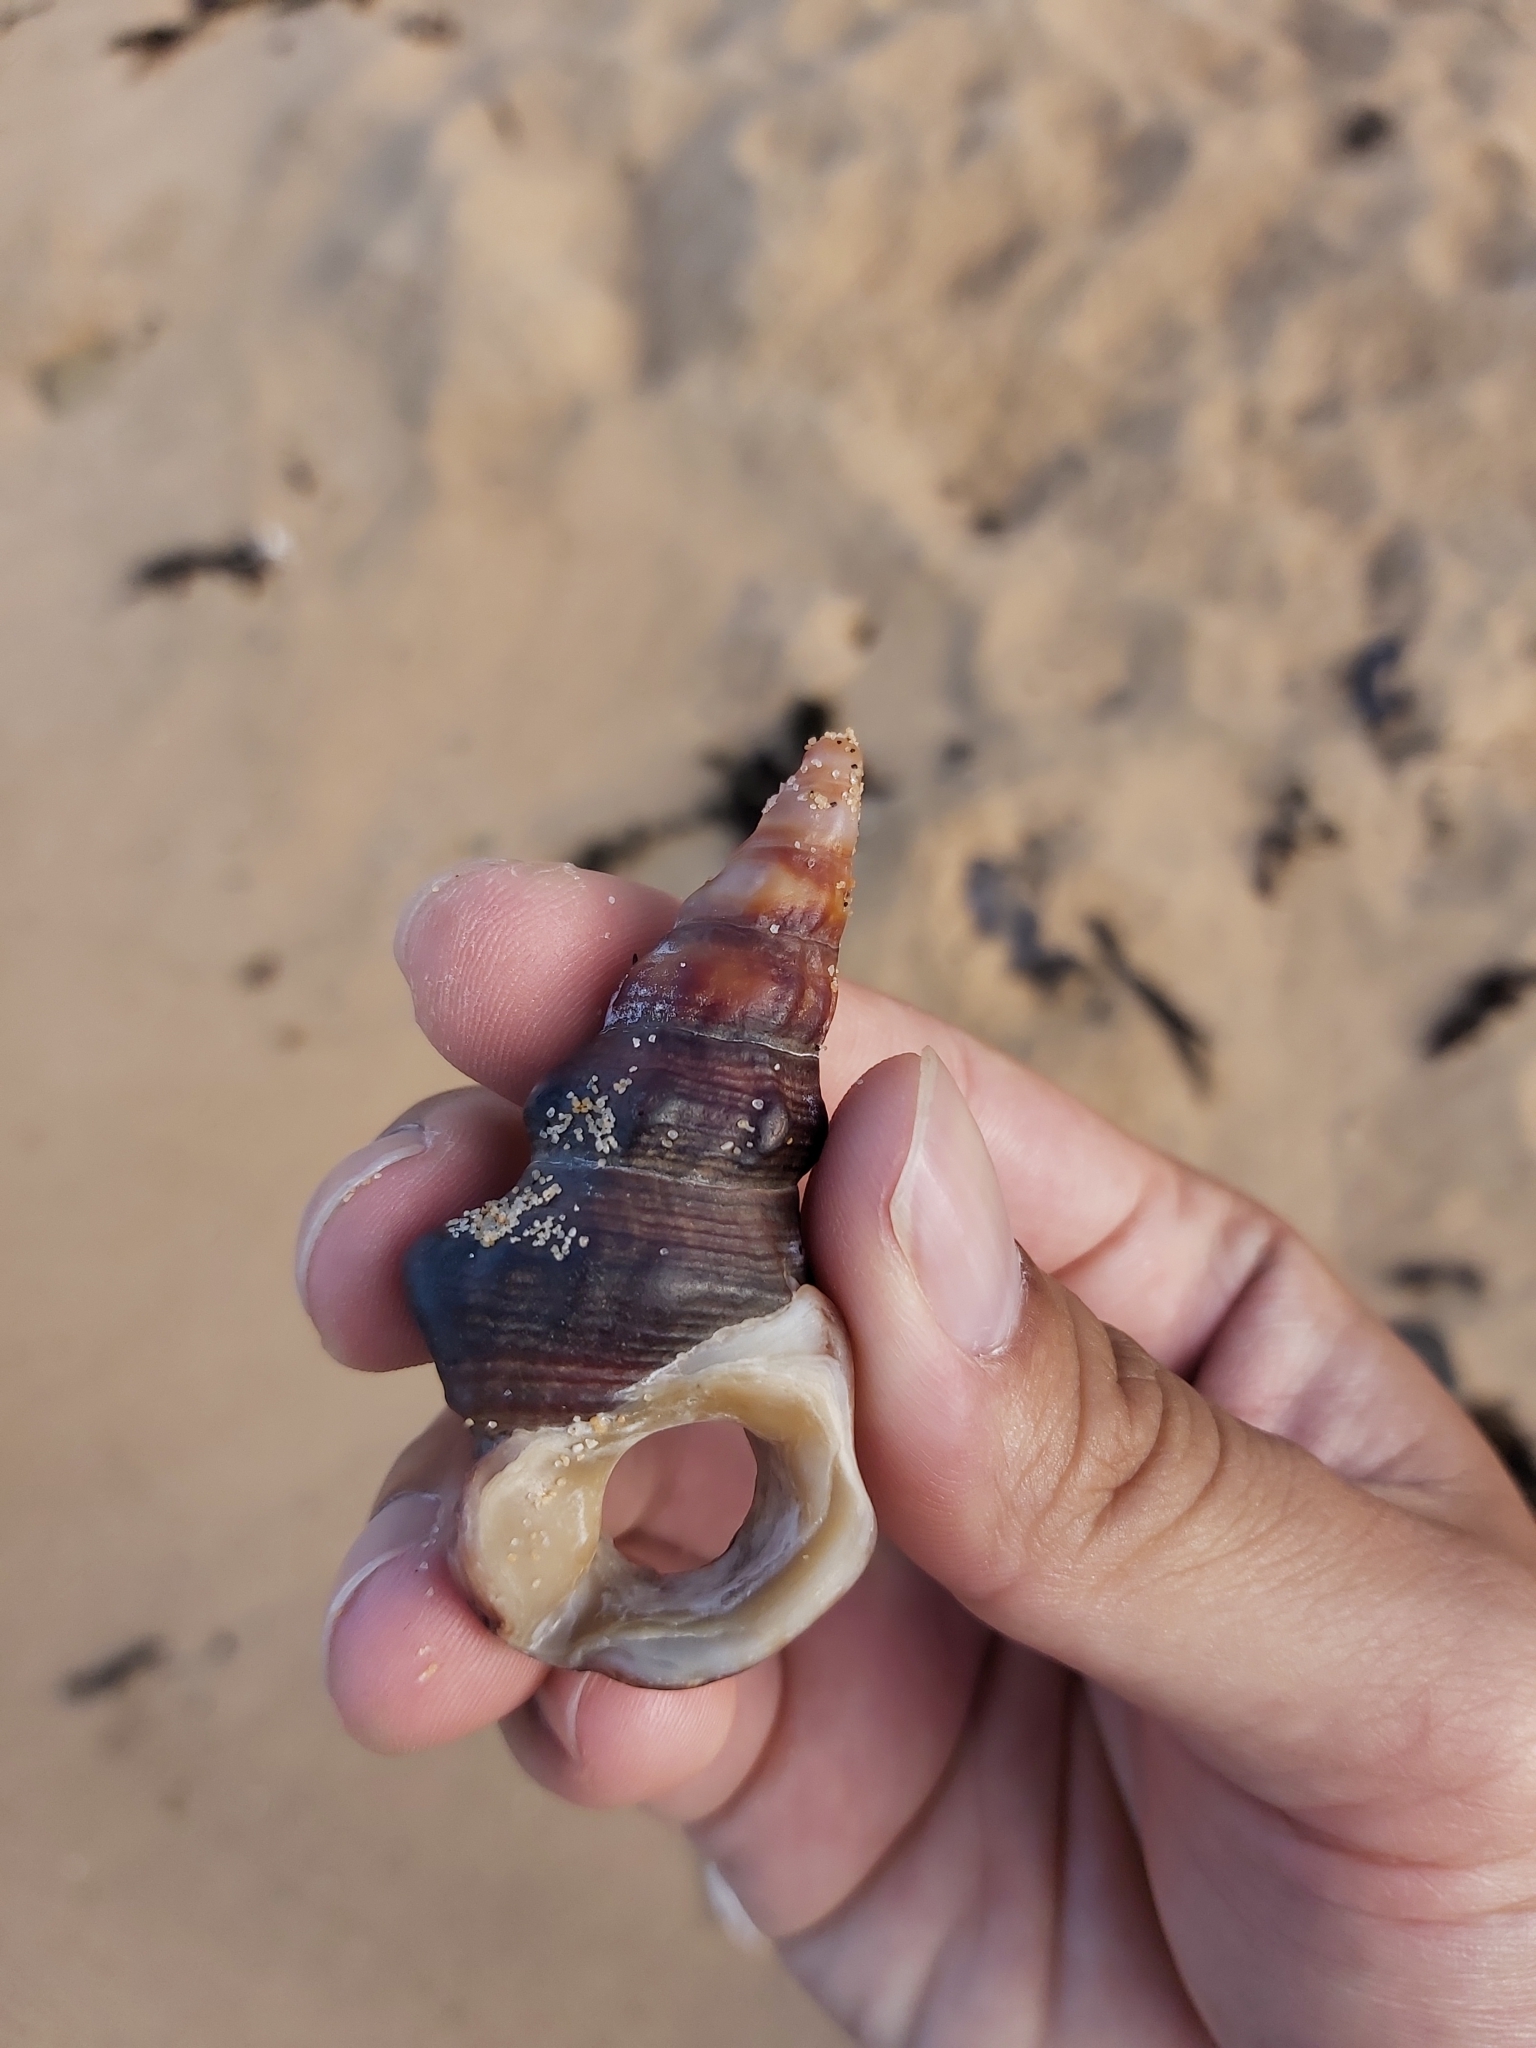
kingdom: Animalia
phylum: Mollusca
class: Gastropoda
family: Batillariidae
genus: Pyrazus
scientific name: Pyrazus ebeninus
